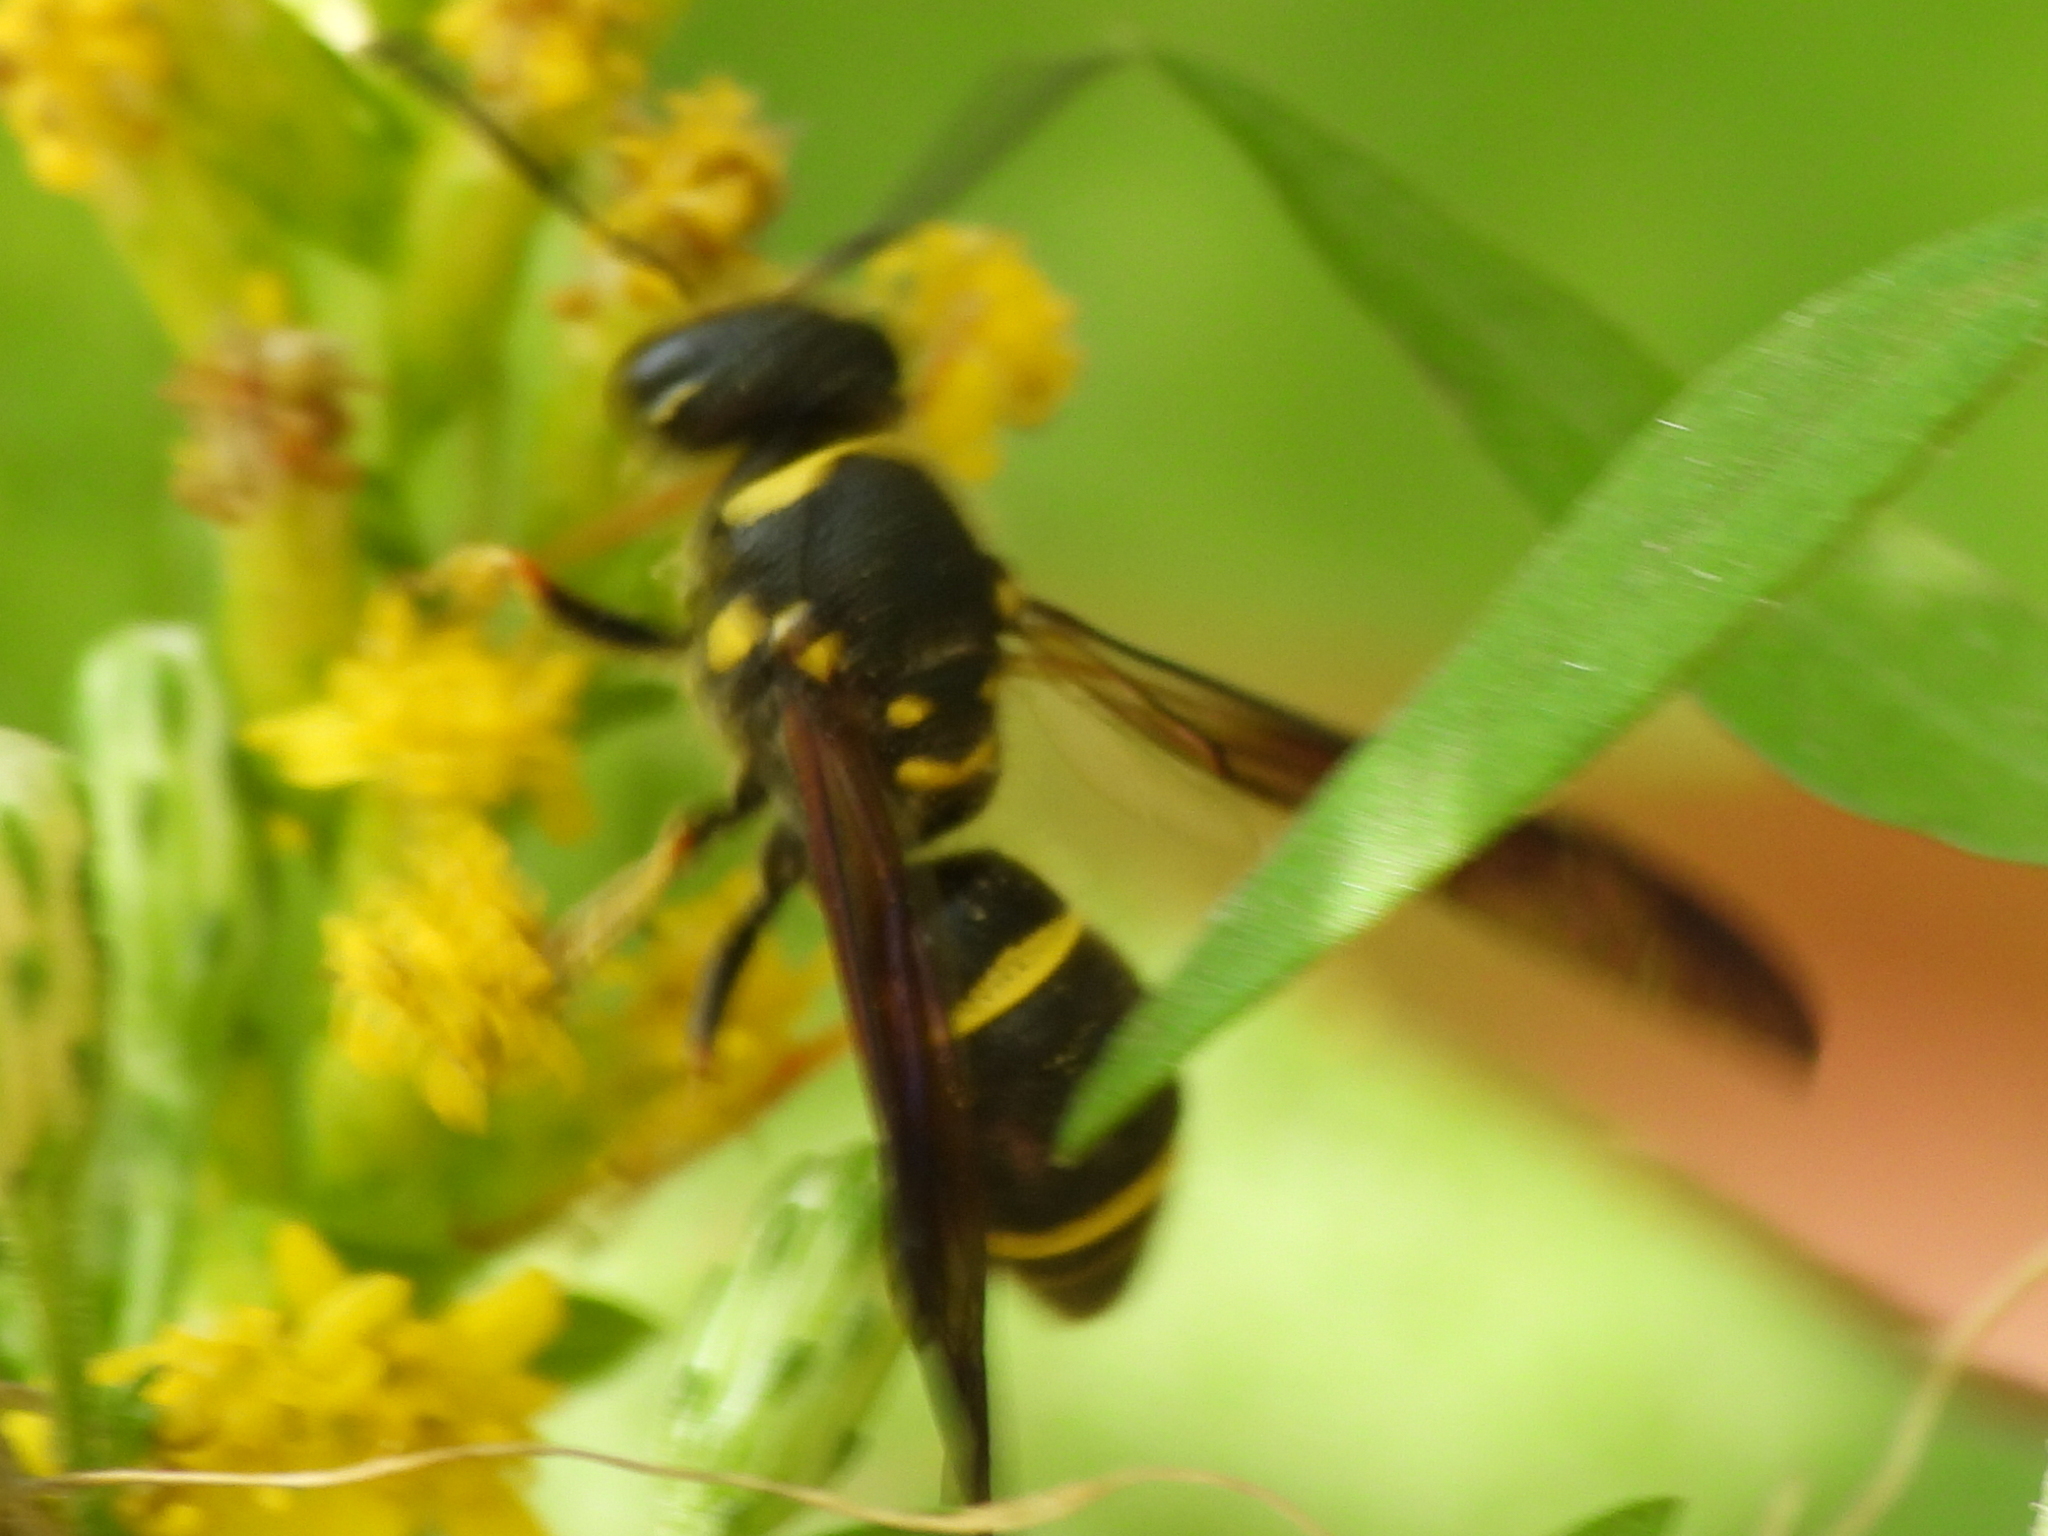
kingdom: Animalia
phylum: Arthropoda
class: Insecta
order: Hymenoptera
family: Vespidae
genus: Ancistrocerus
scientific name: Ancistrocerus campestris
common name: Smiling mason wasp
